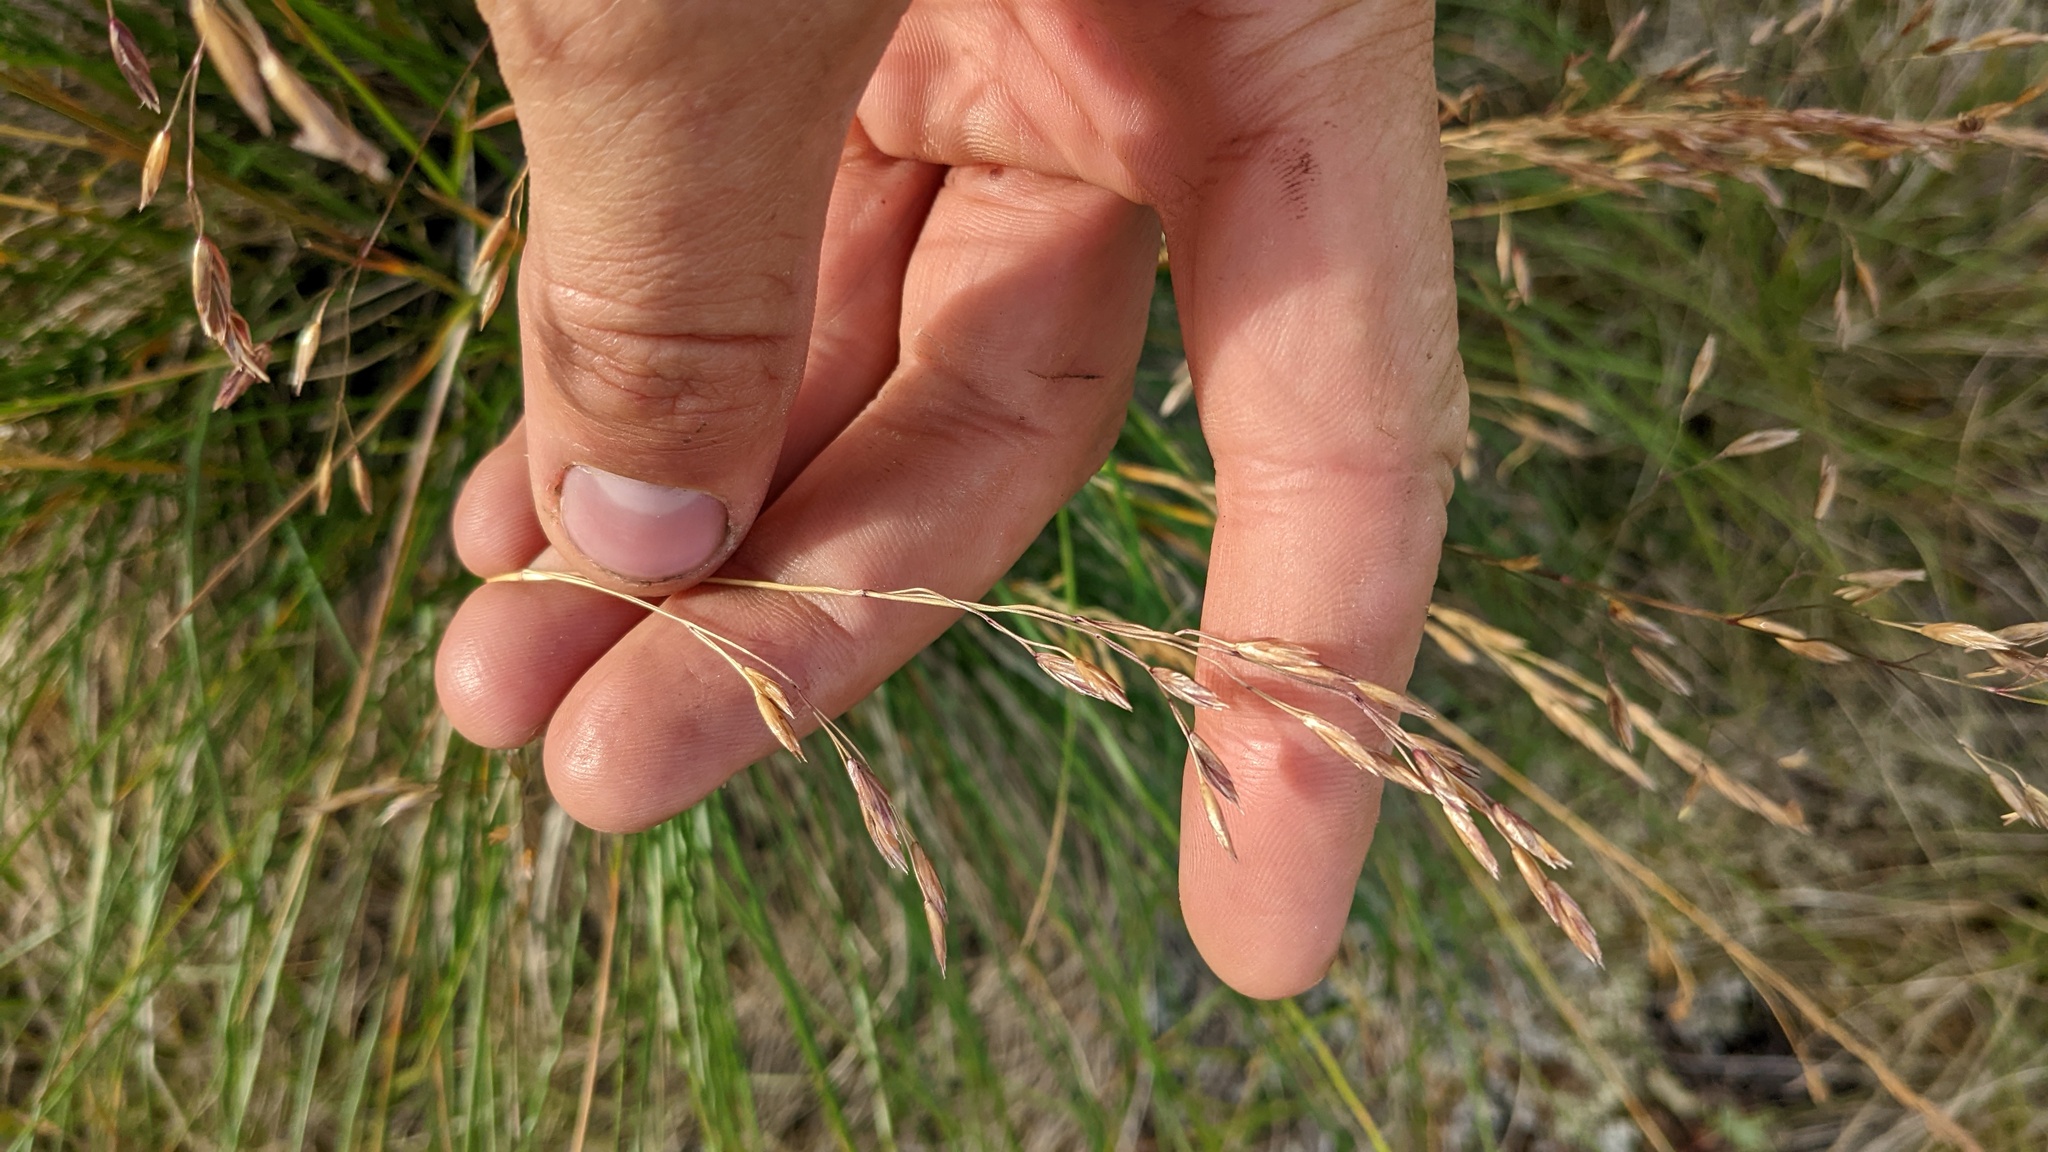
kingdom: Plantae
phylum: Tracheophyta
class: Liliopsida
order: Poales
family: Poaceae
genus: Festuca
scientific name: Festuca altaica
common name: Northern rough fescue
